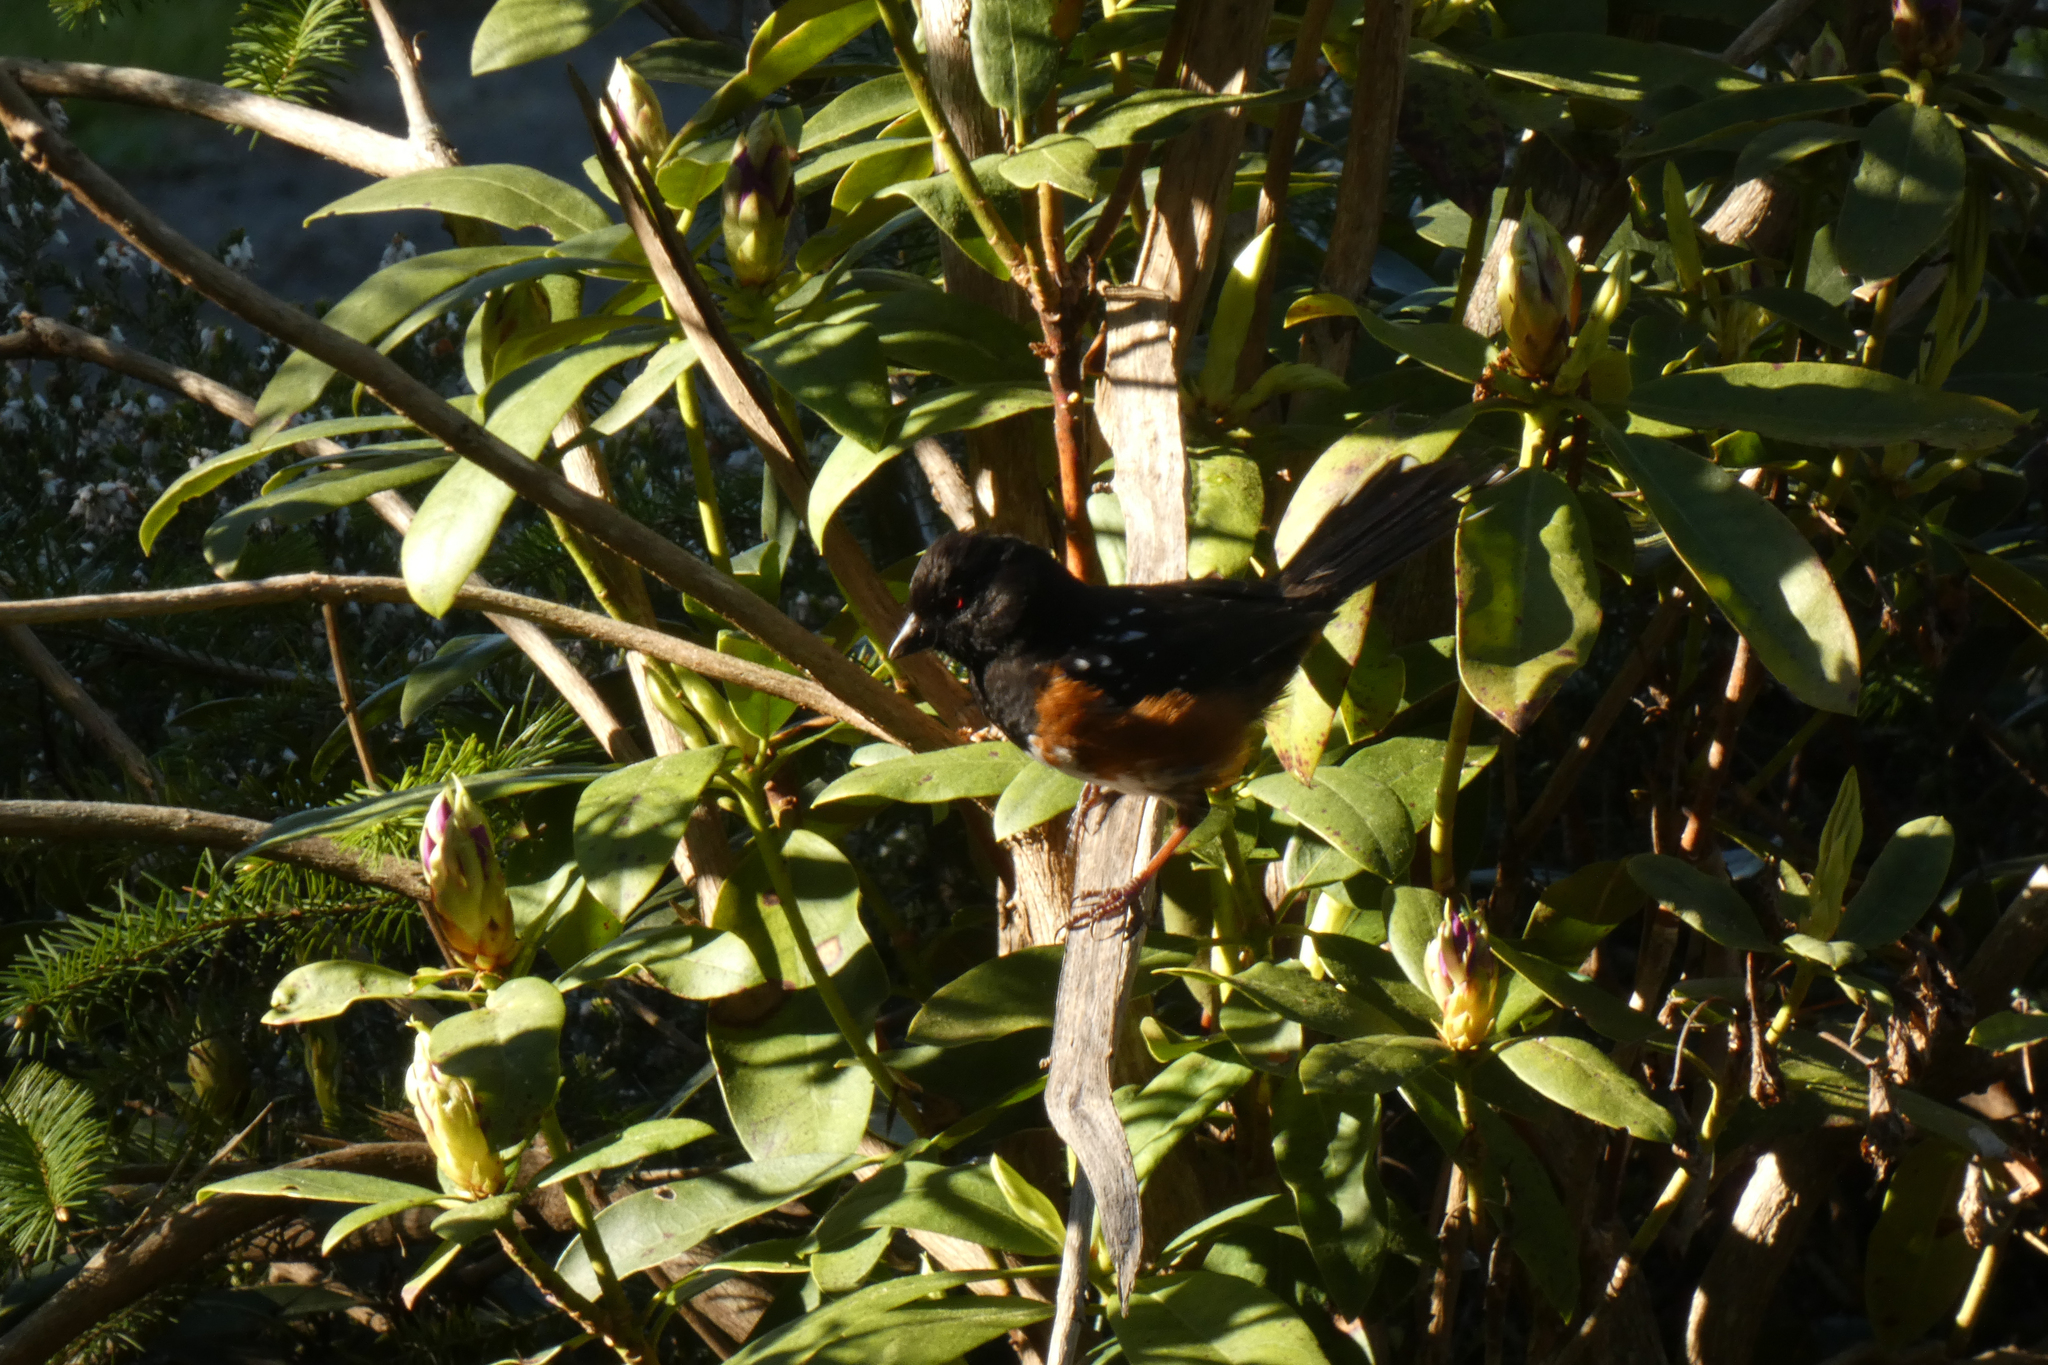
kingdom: Animalia
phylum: Chordata
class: Aves
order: Passeriformes
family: Passerellidae
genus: Pipilo
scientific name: Pipilo maculatus
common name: Spotted towhee
